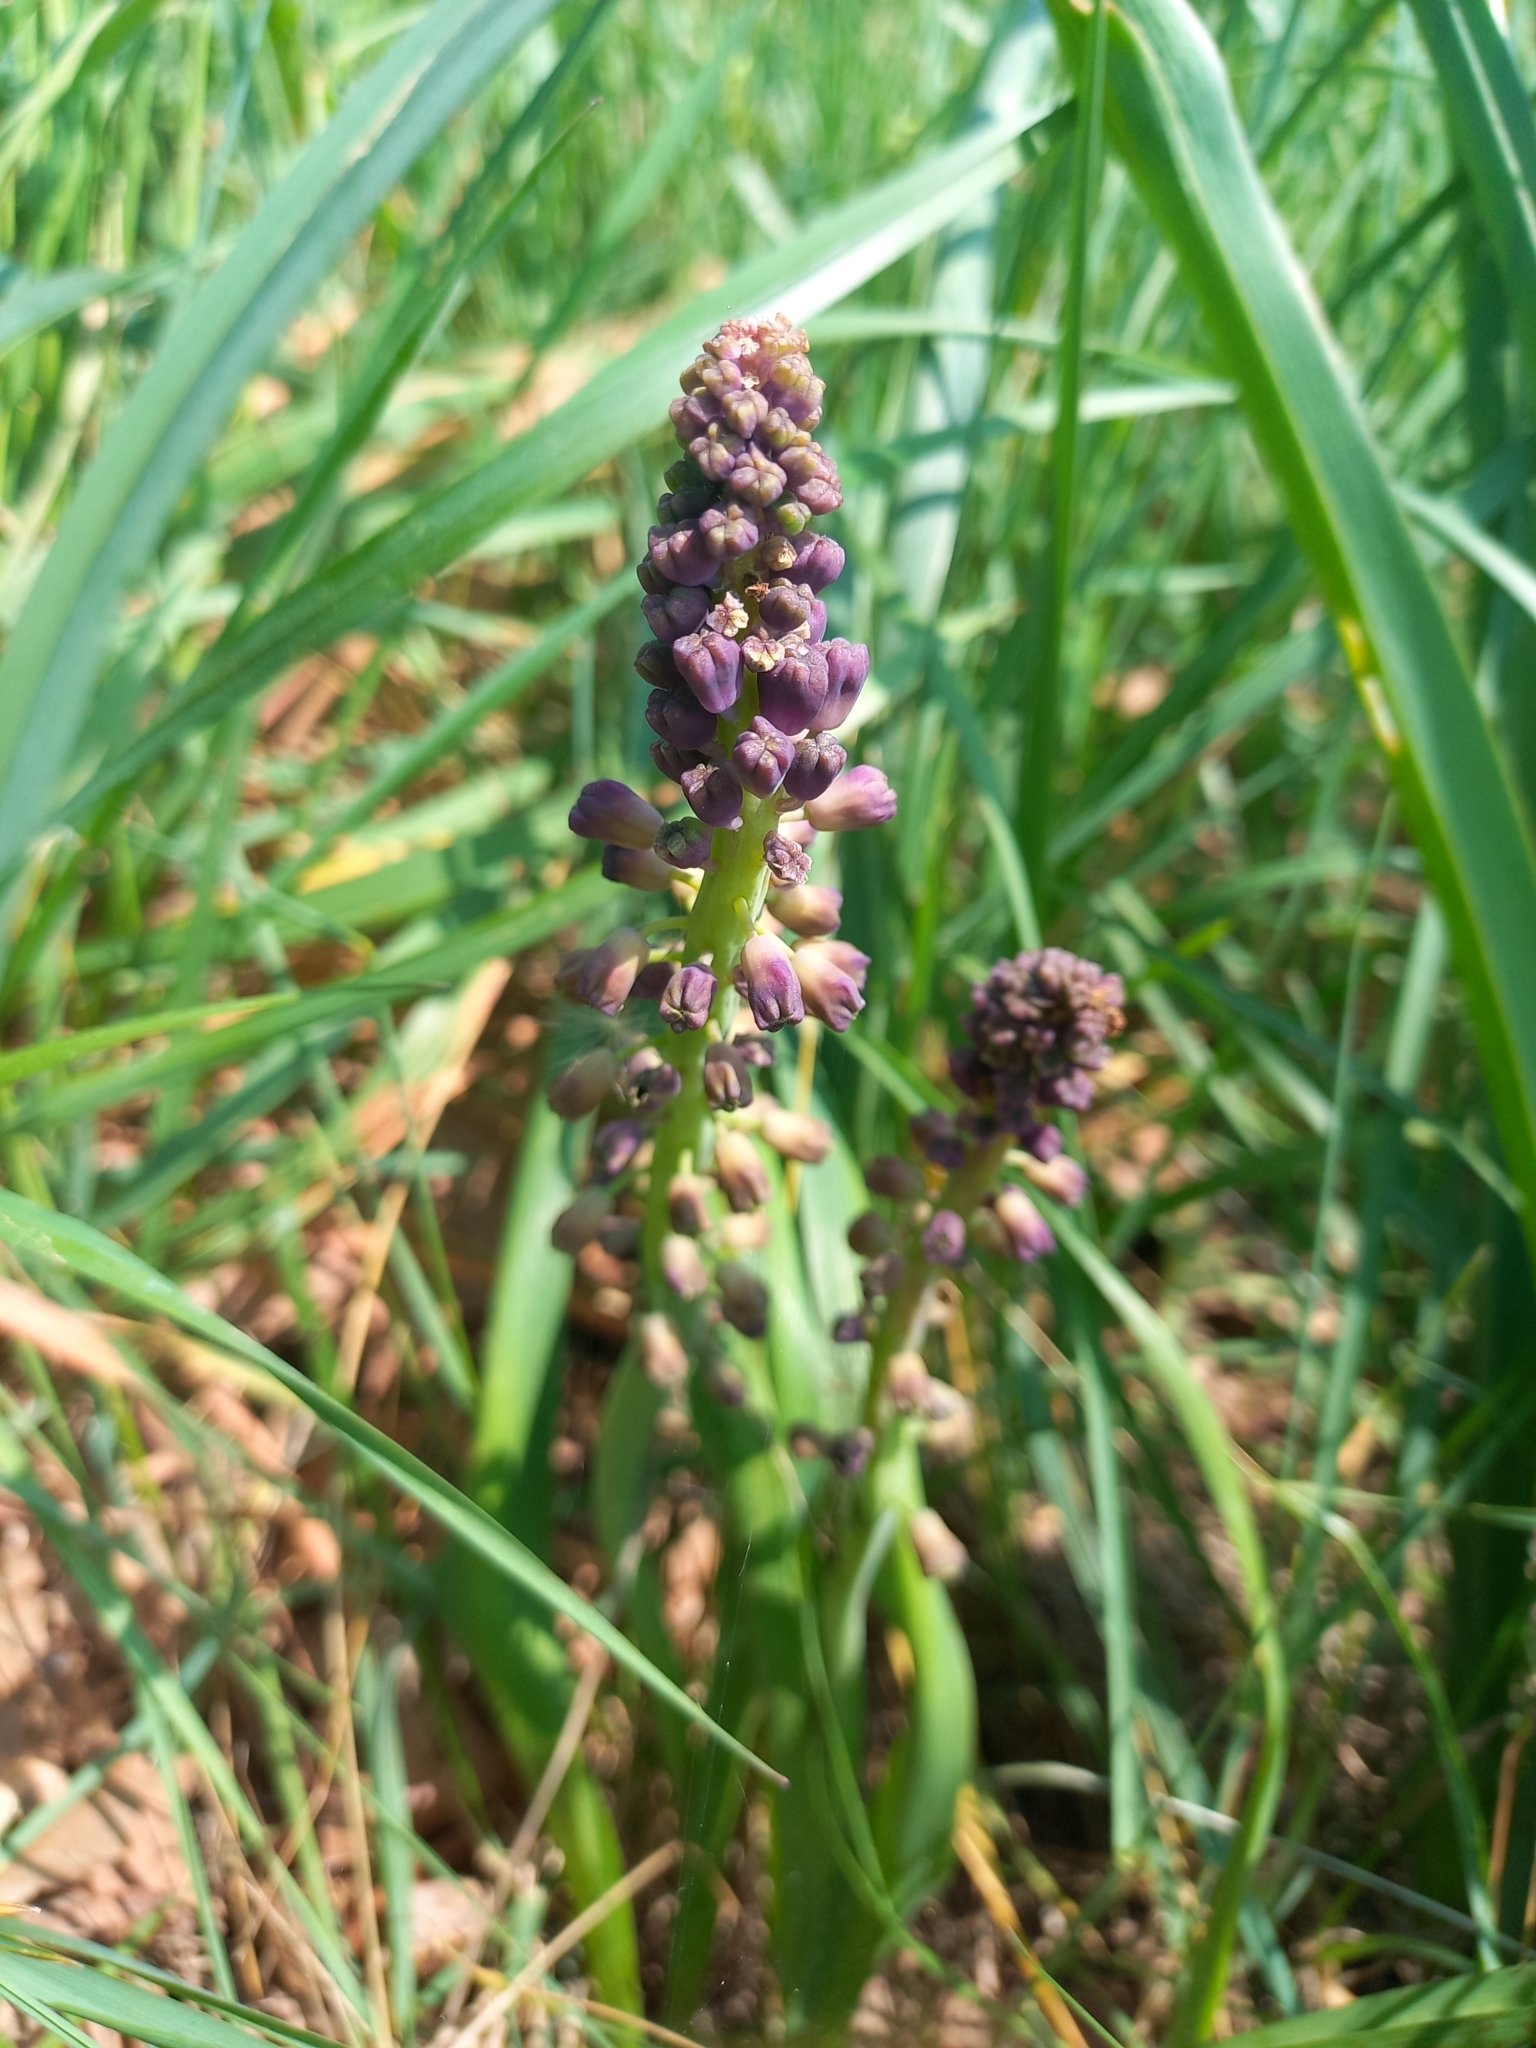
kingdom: Plantae
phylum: Tracheophyta
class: Liliopsida
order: Asparagales
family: Asparagaceae
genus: Muscari
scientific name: Muscari comosum
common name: Tassel hyacinth
